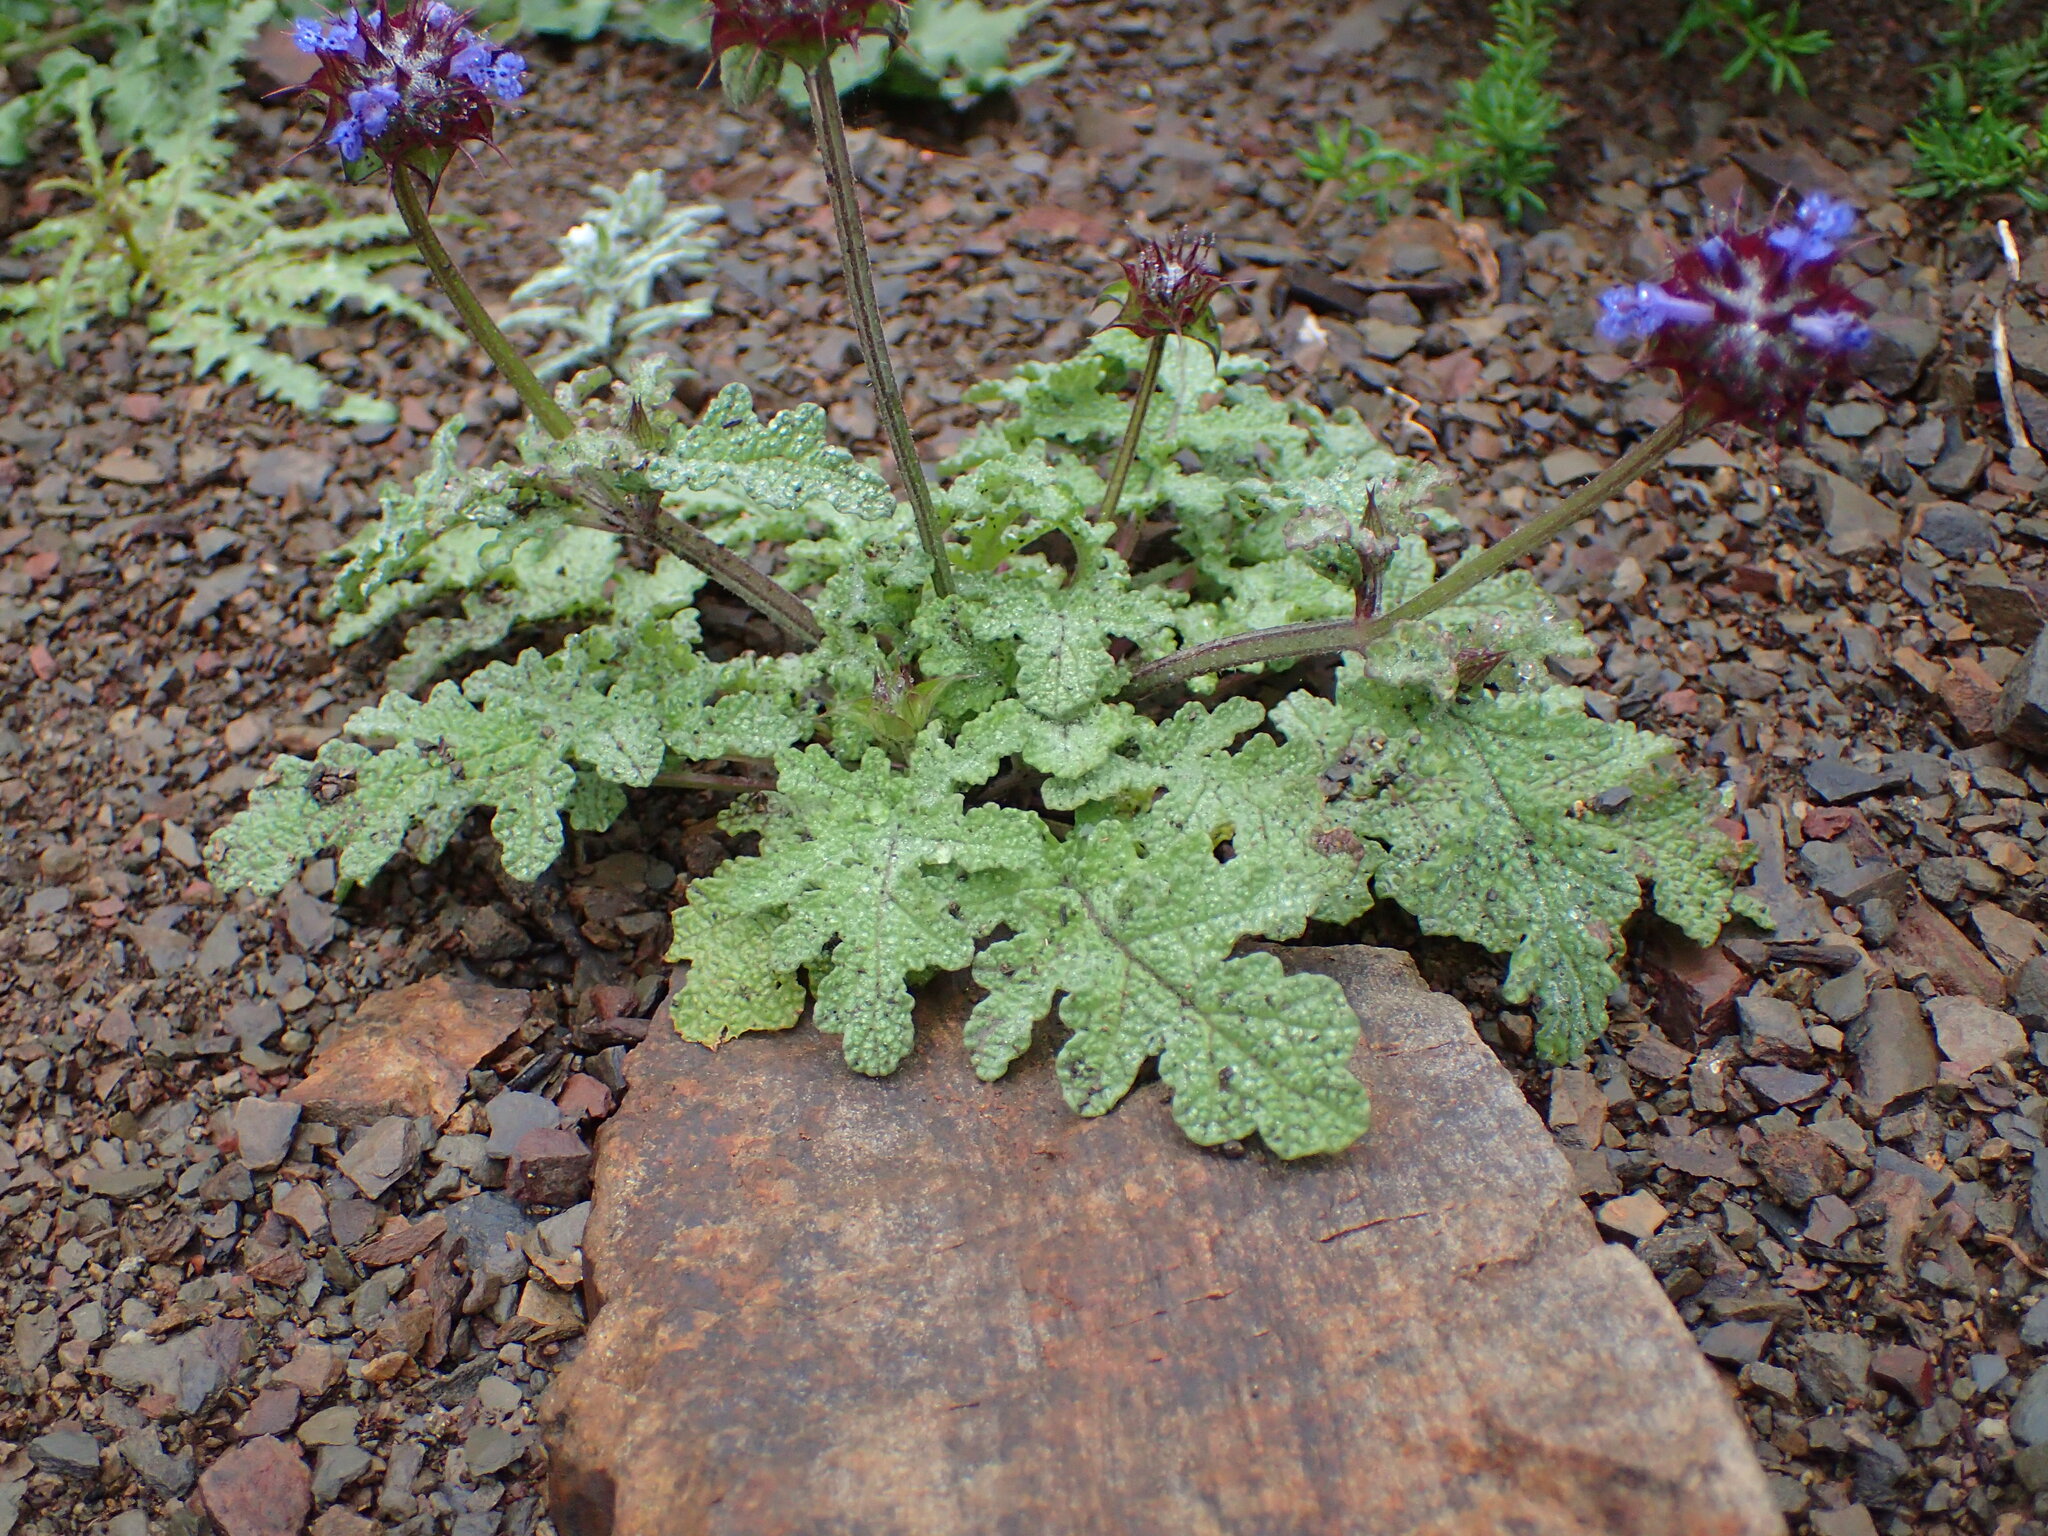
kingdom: Plantae
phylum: Tracheophyta
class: Magnoliopsida
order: Lamiales
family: Lamiaceae
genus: Salvia
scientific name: Salvia columbariae
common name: Chia
